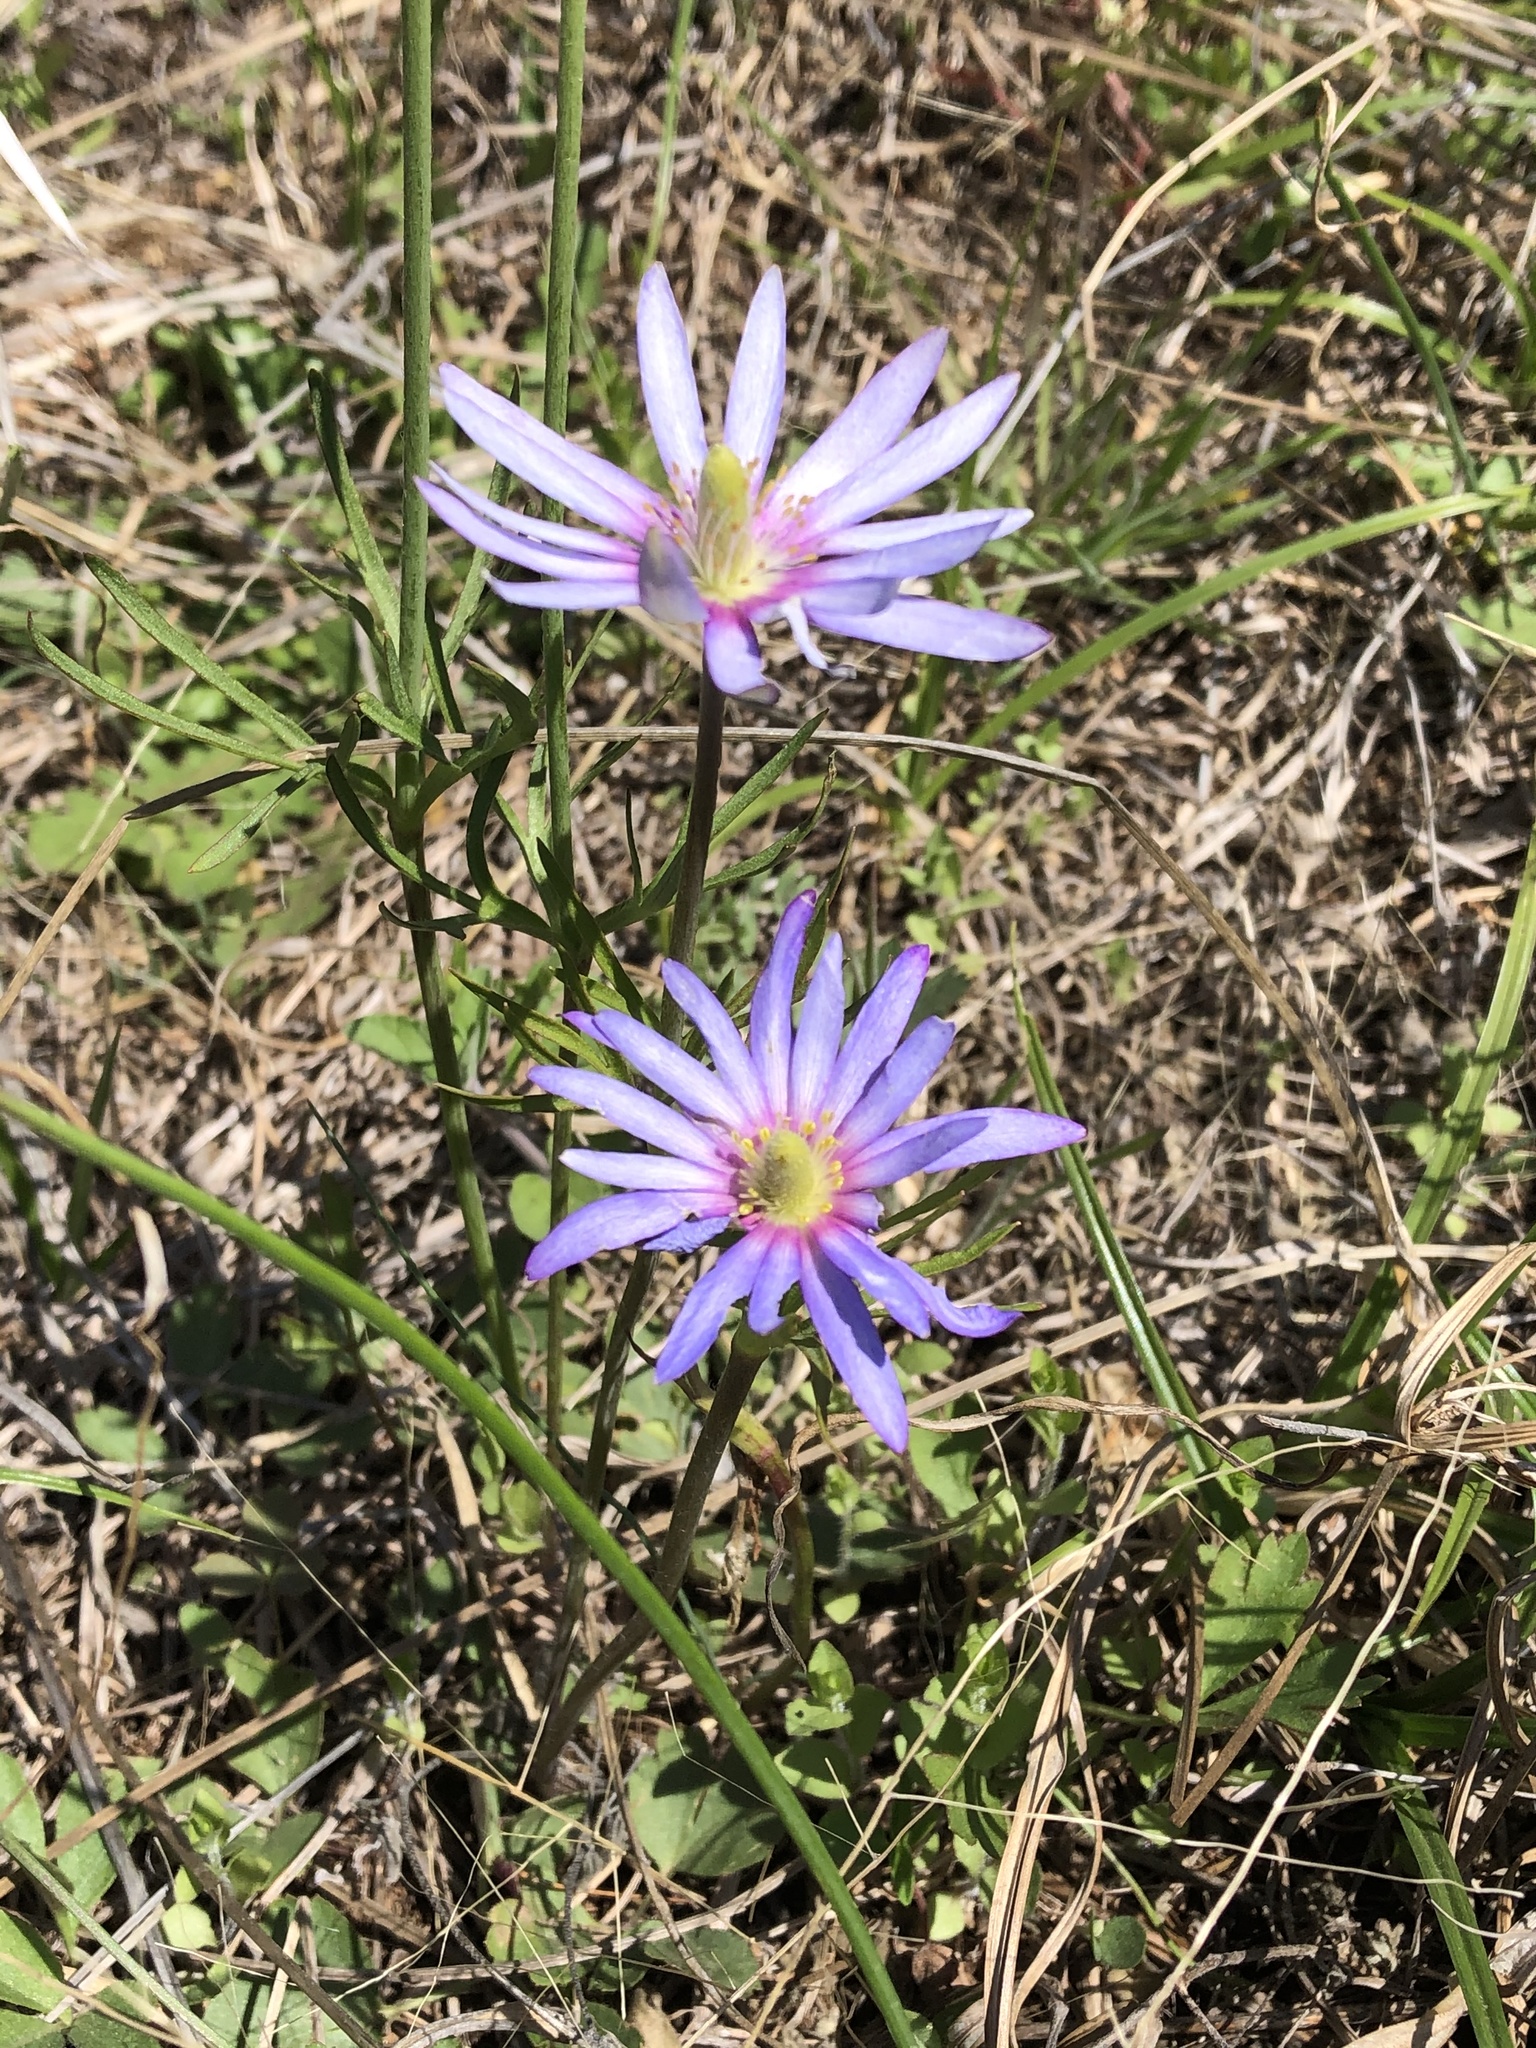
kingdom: Plantae
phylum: Tracheophyta
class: Magnoliopsida
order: Ranunculales
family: Ranunculaceae
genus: Anemone
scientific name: Anemone berlandieri
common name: Ten-petal anemone
